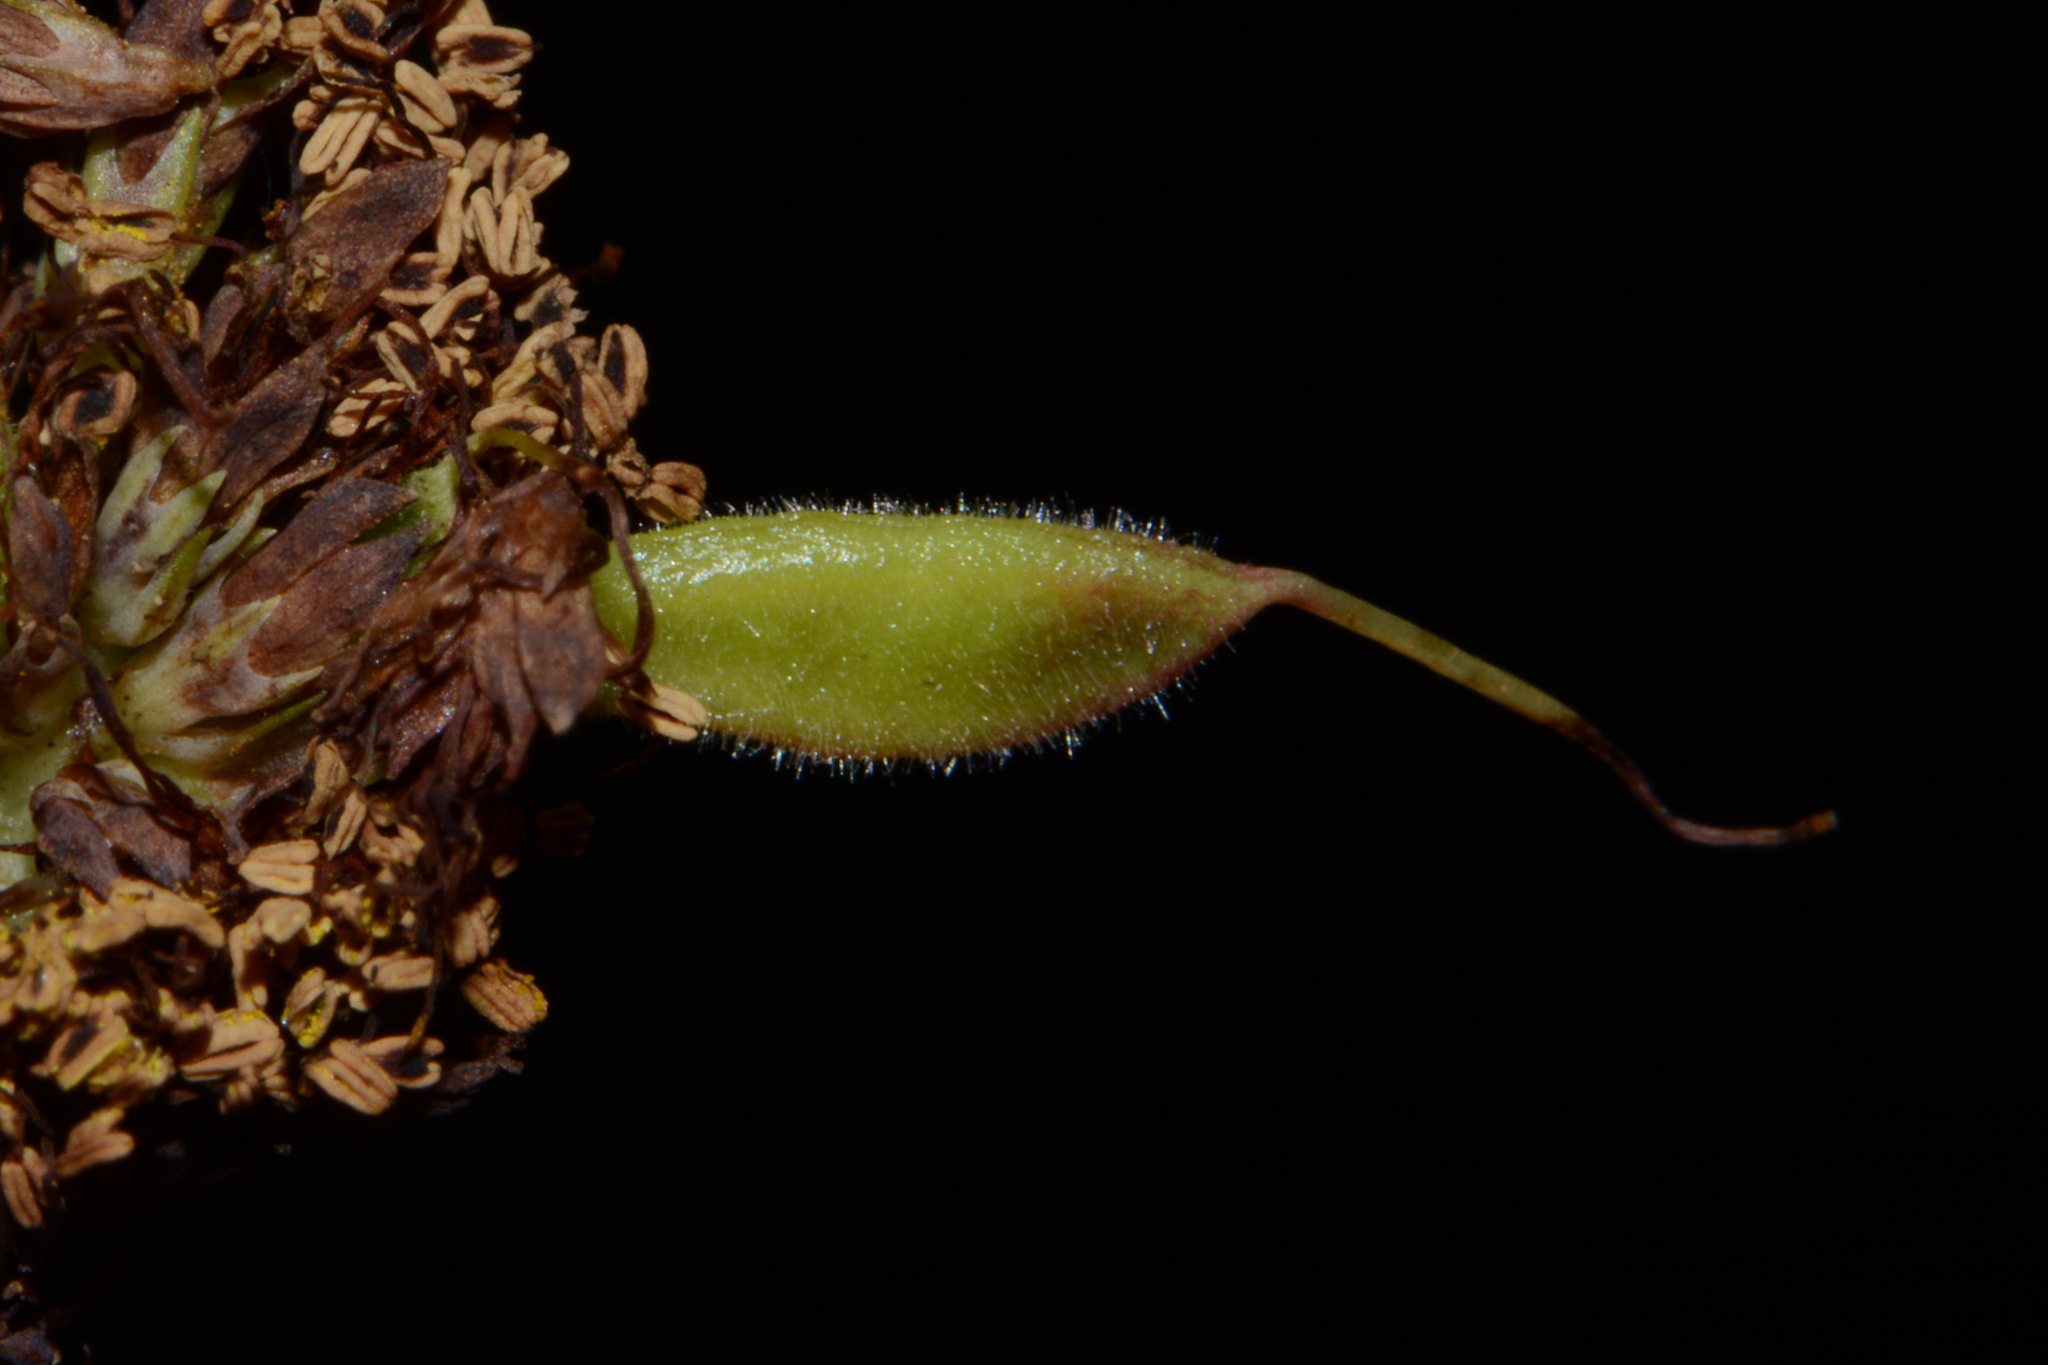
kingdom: Plantae
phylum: Tracheophyta
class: Magnoliopsida
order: Fabales
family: Fabaceae
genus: Neptunia
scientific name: Neptunia lutea
